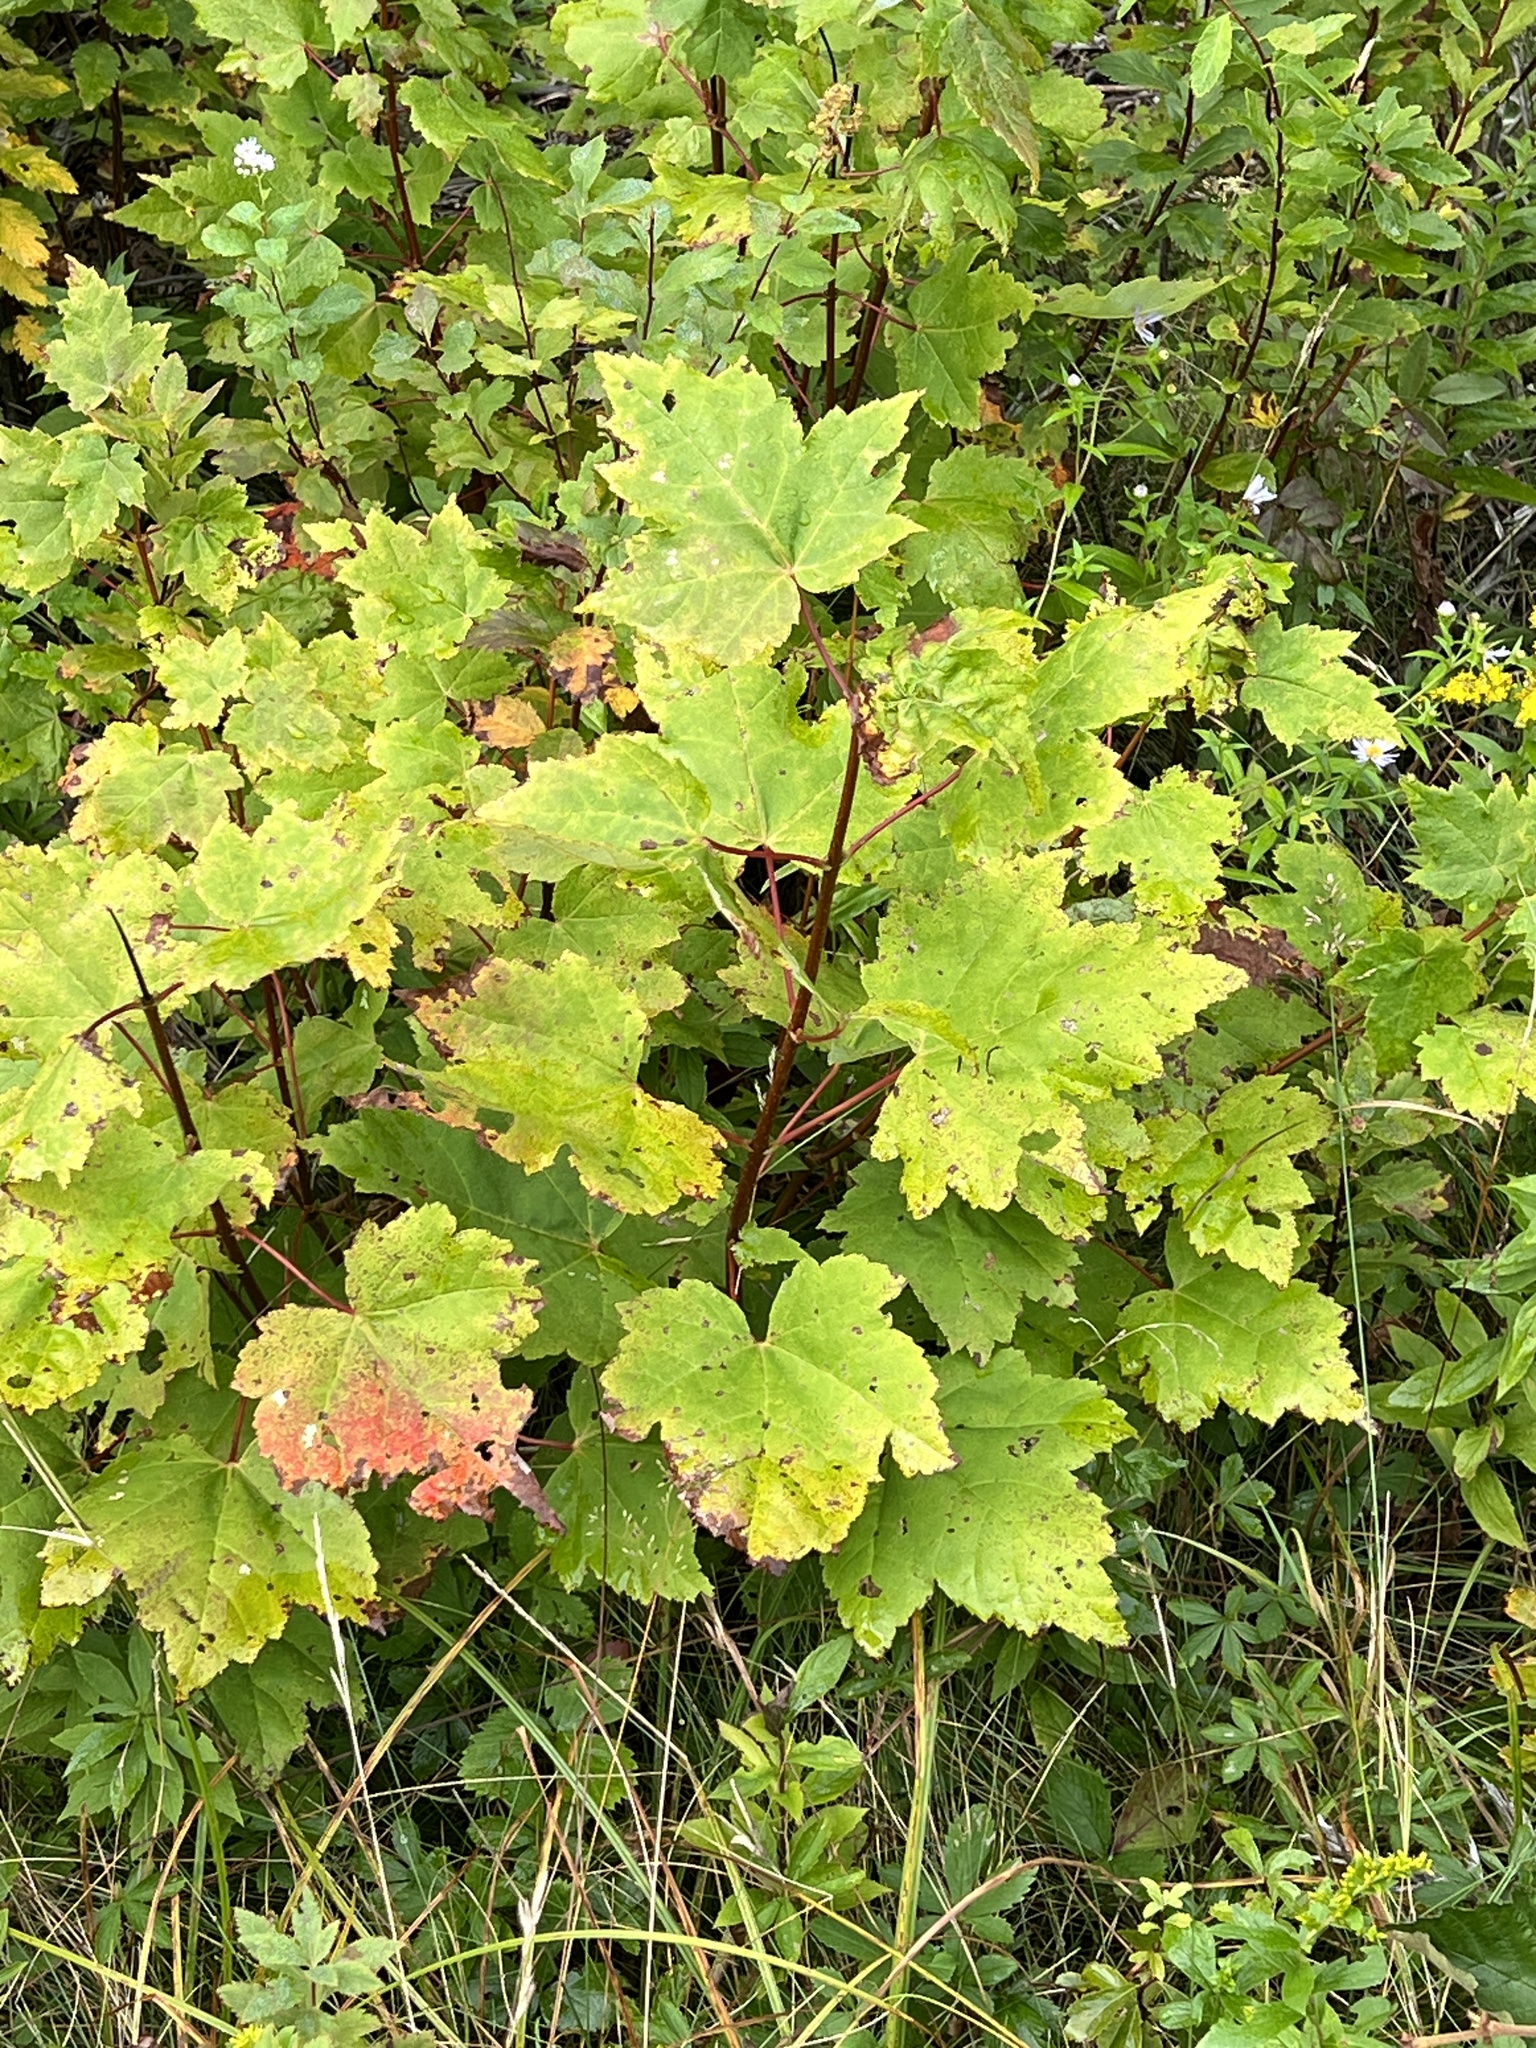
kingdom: Plantae
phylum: Tracheophyta
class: Magnoliopsida
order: Sapindales
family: Sapindaceae
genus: Acer
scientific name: Acer rubrum
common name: Red maple
